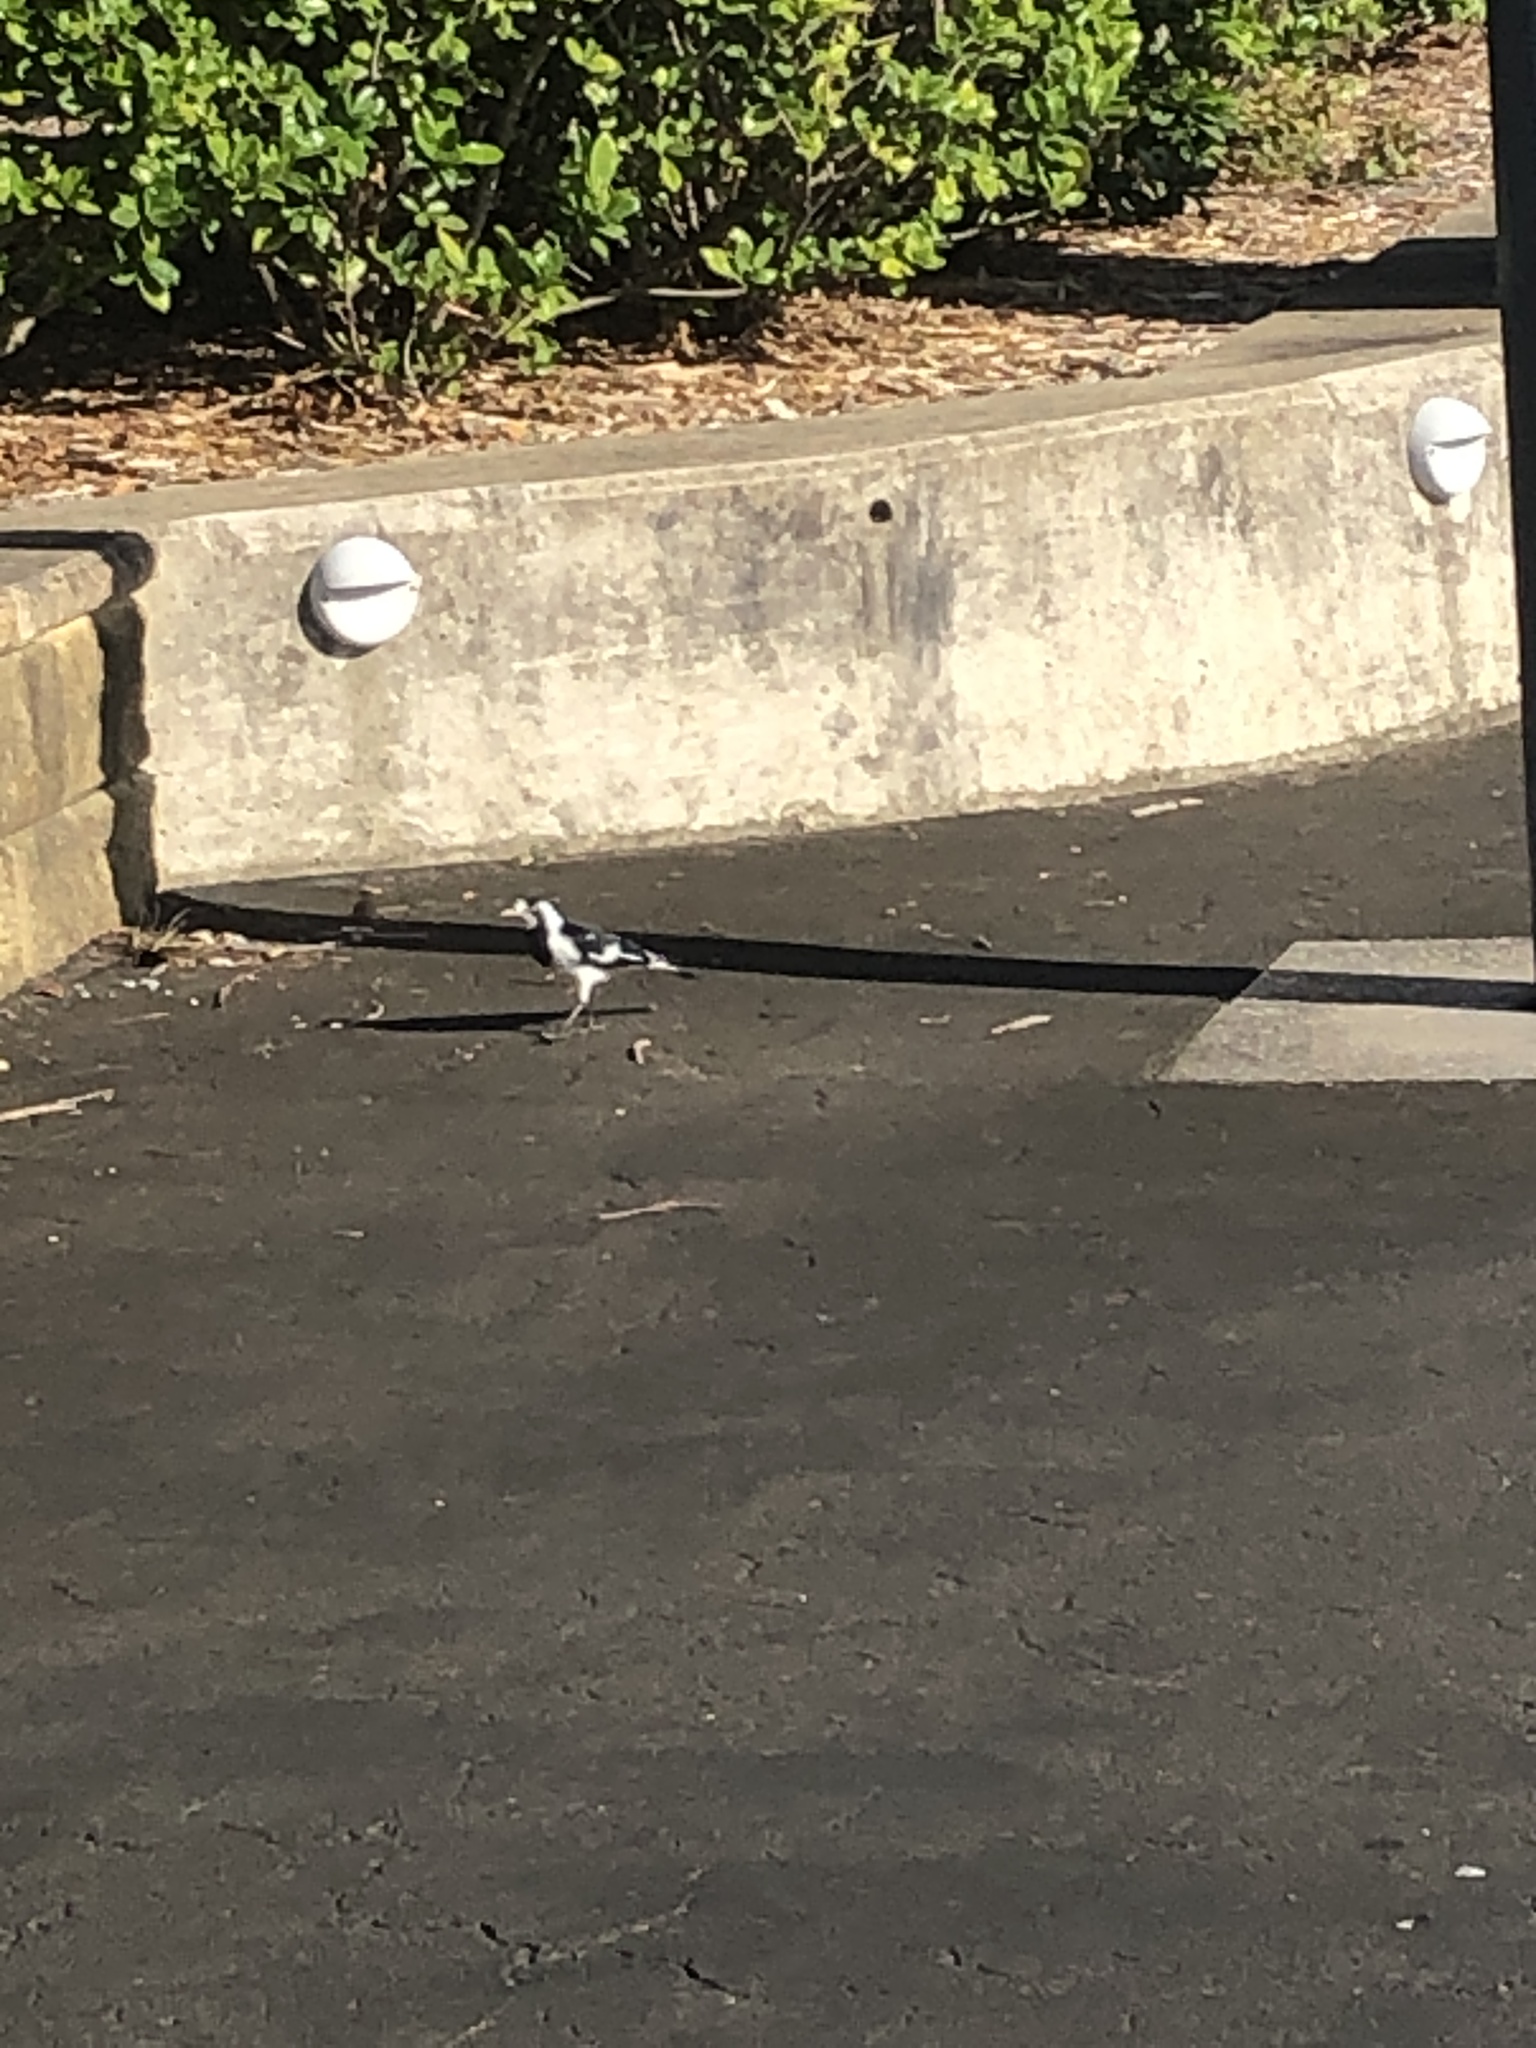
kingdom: Animalia
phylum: Chordata
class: Aves
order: Passeriformes
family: Monarchidae
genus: Grallina
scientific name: Grallina cyanoleuca
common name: Magpie-lark
